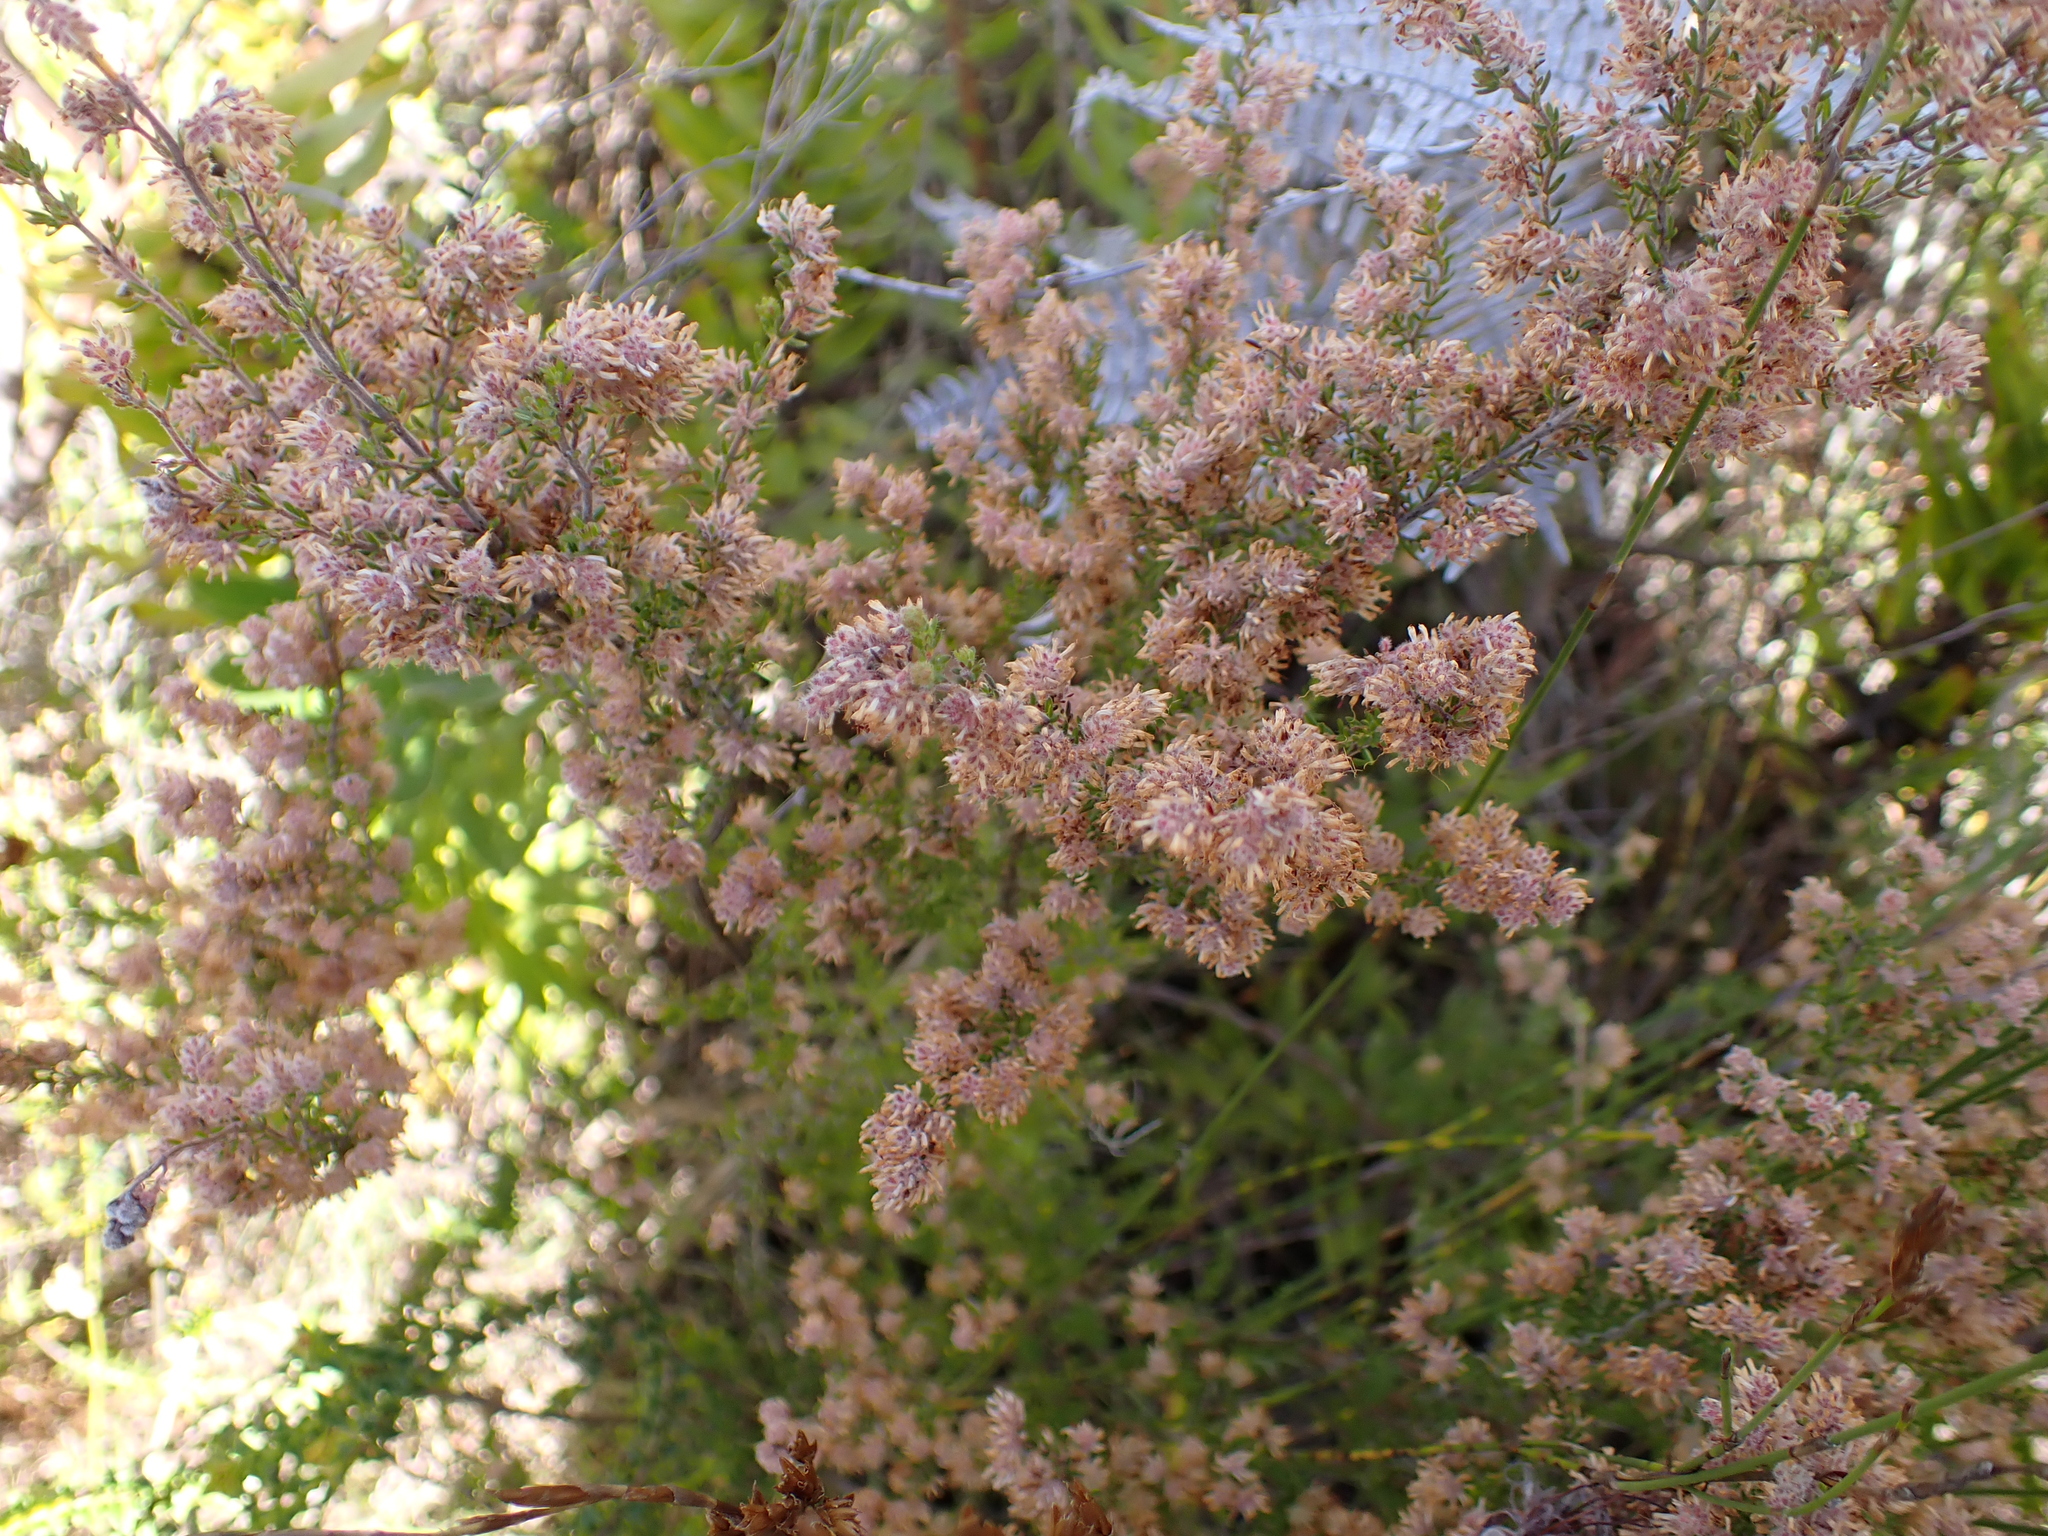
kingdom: Plantae
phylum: Tracheophyta
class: Magnoliopsida
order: Ericales
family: Ericaceae
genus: Erica
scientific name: Erica similis
